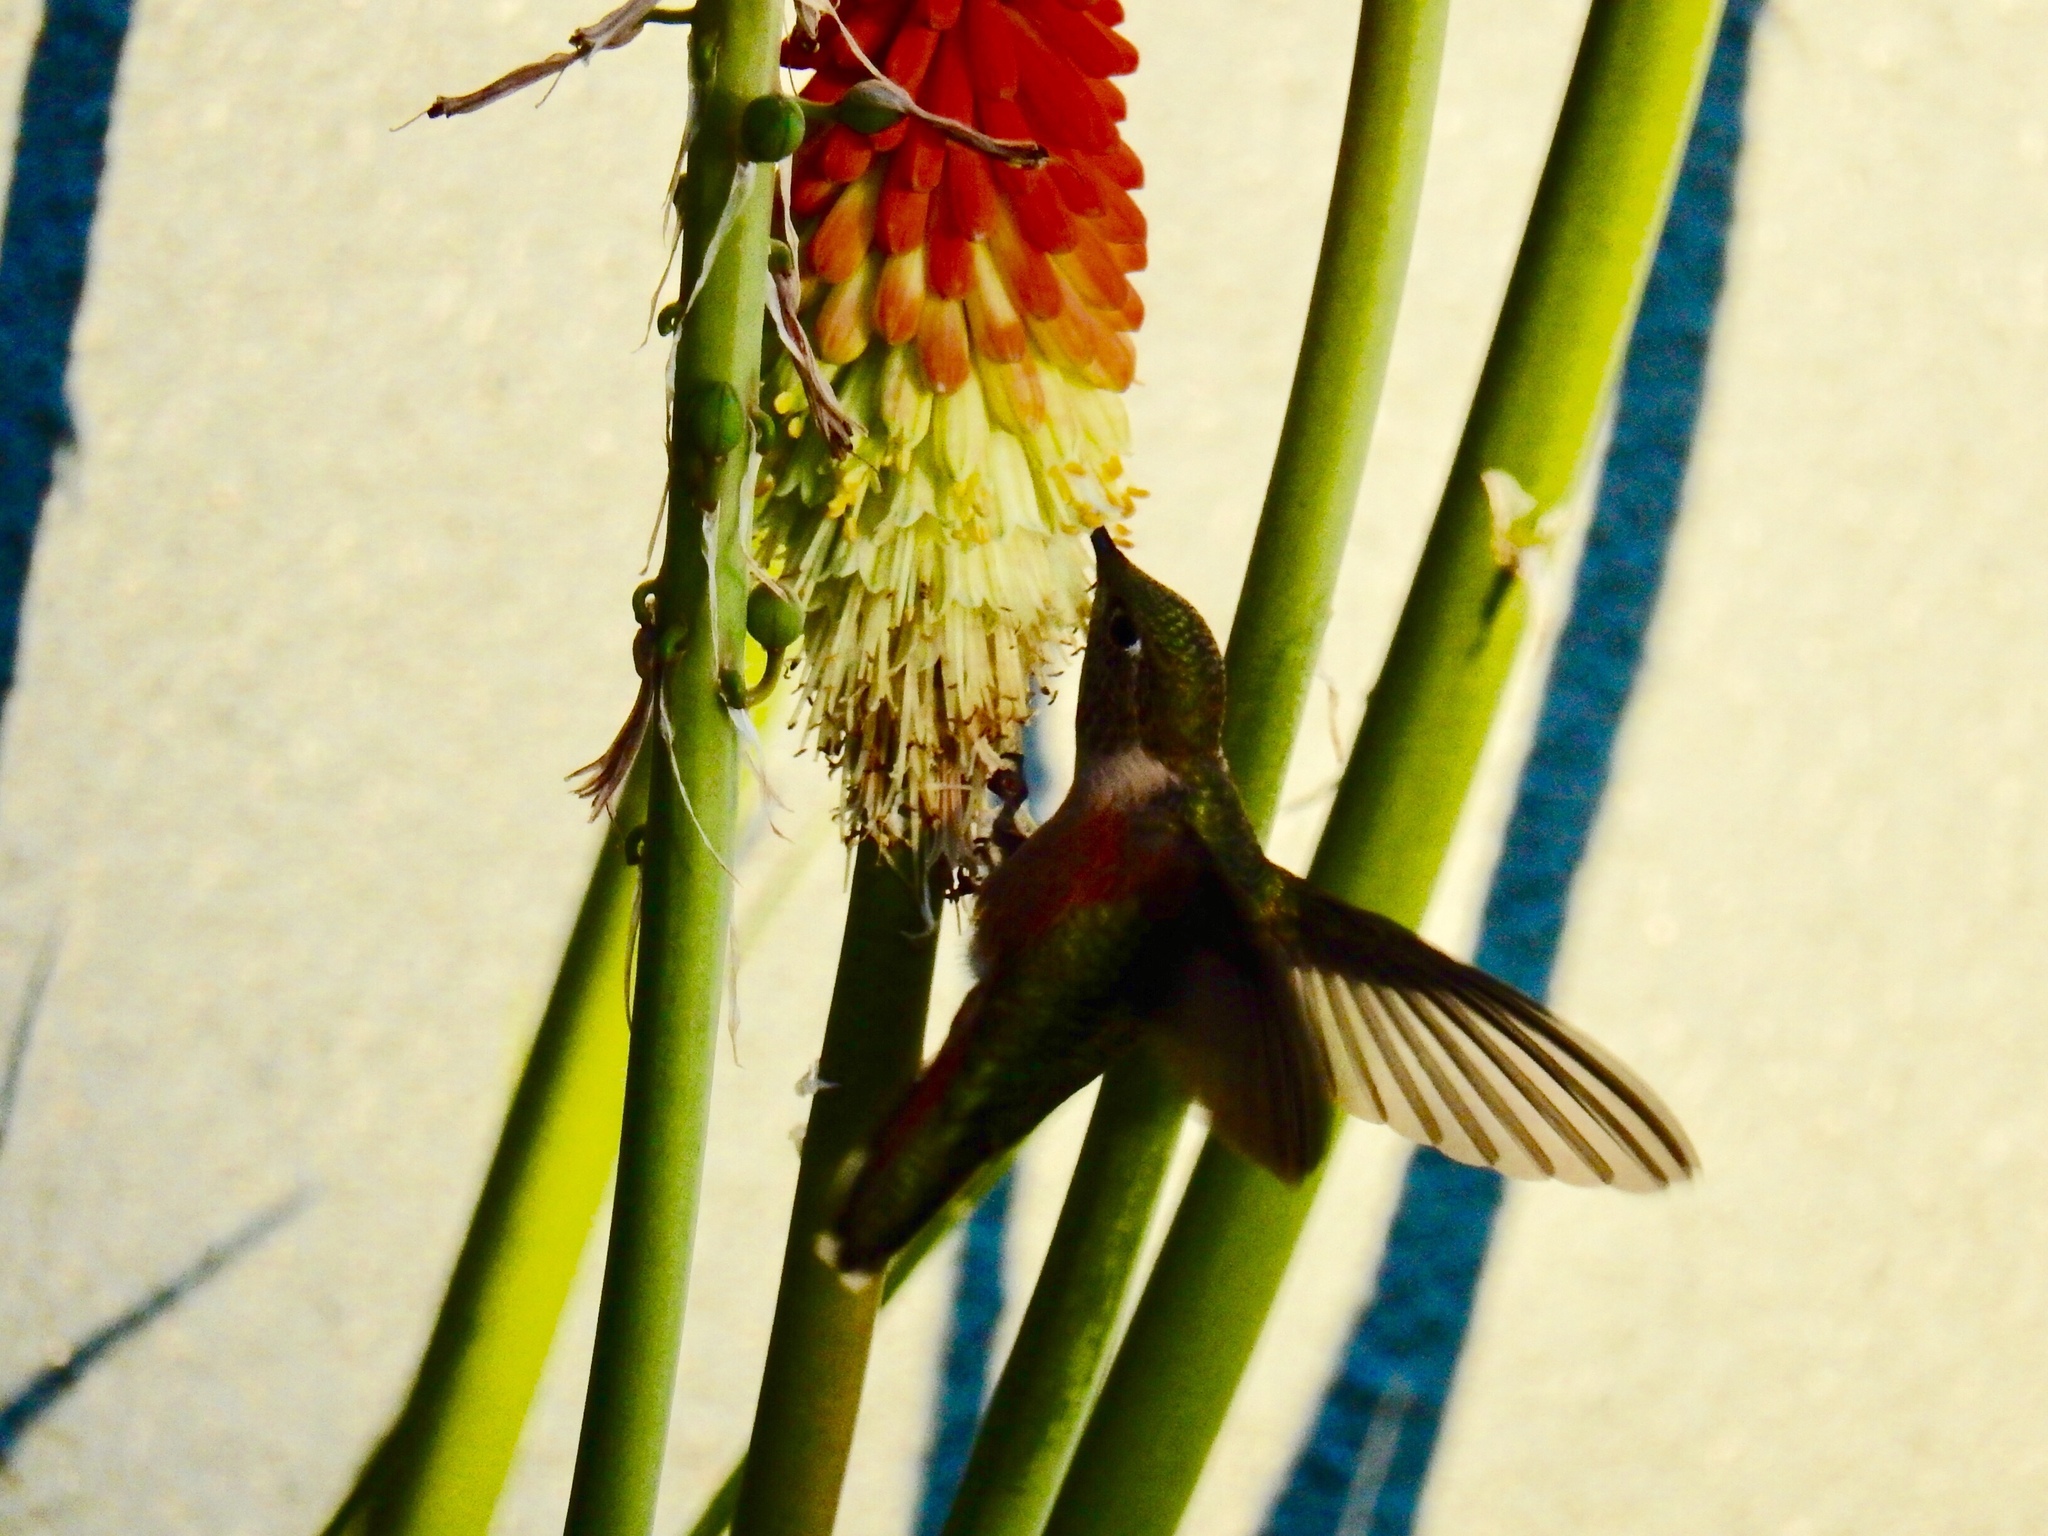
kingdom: Animalia
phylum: Chordata
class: Aves
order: Apodiformes
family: Trochilidae
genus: Selasphorus
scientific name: Selasphorus platycercus
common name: Broad-tailed hummingbird
